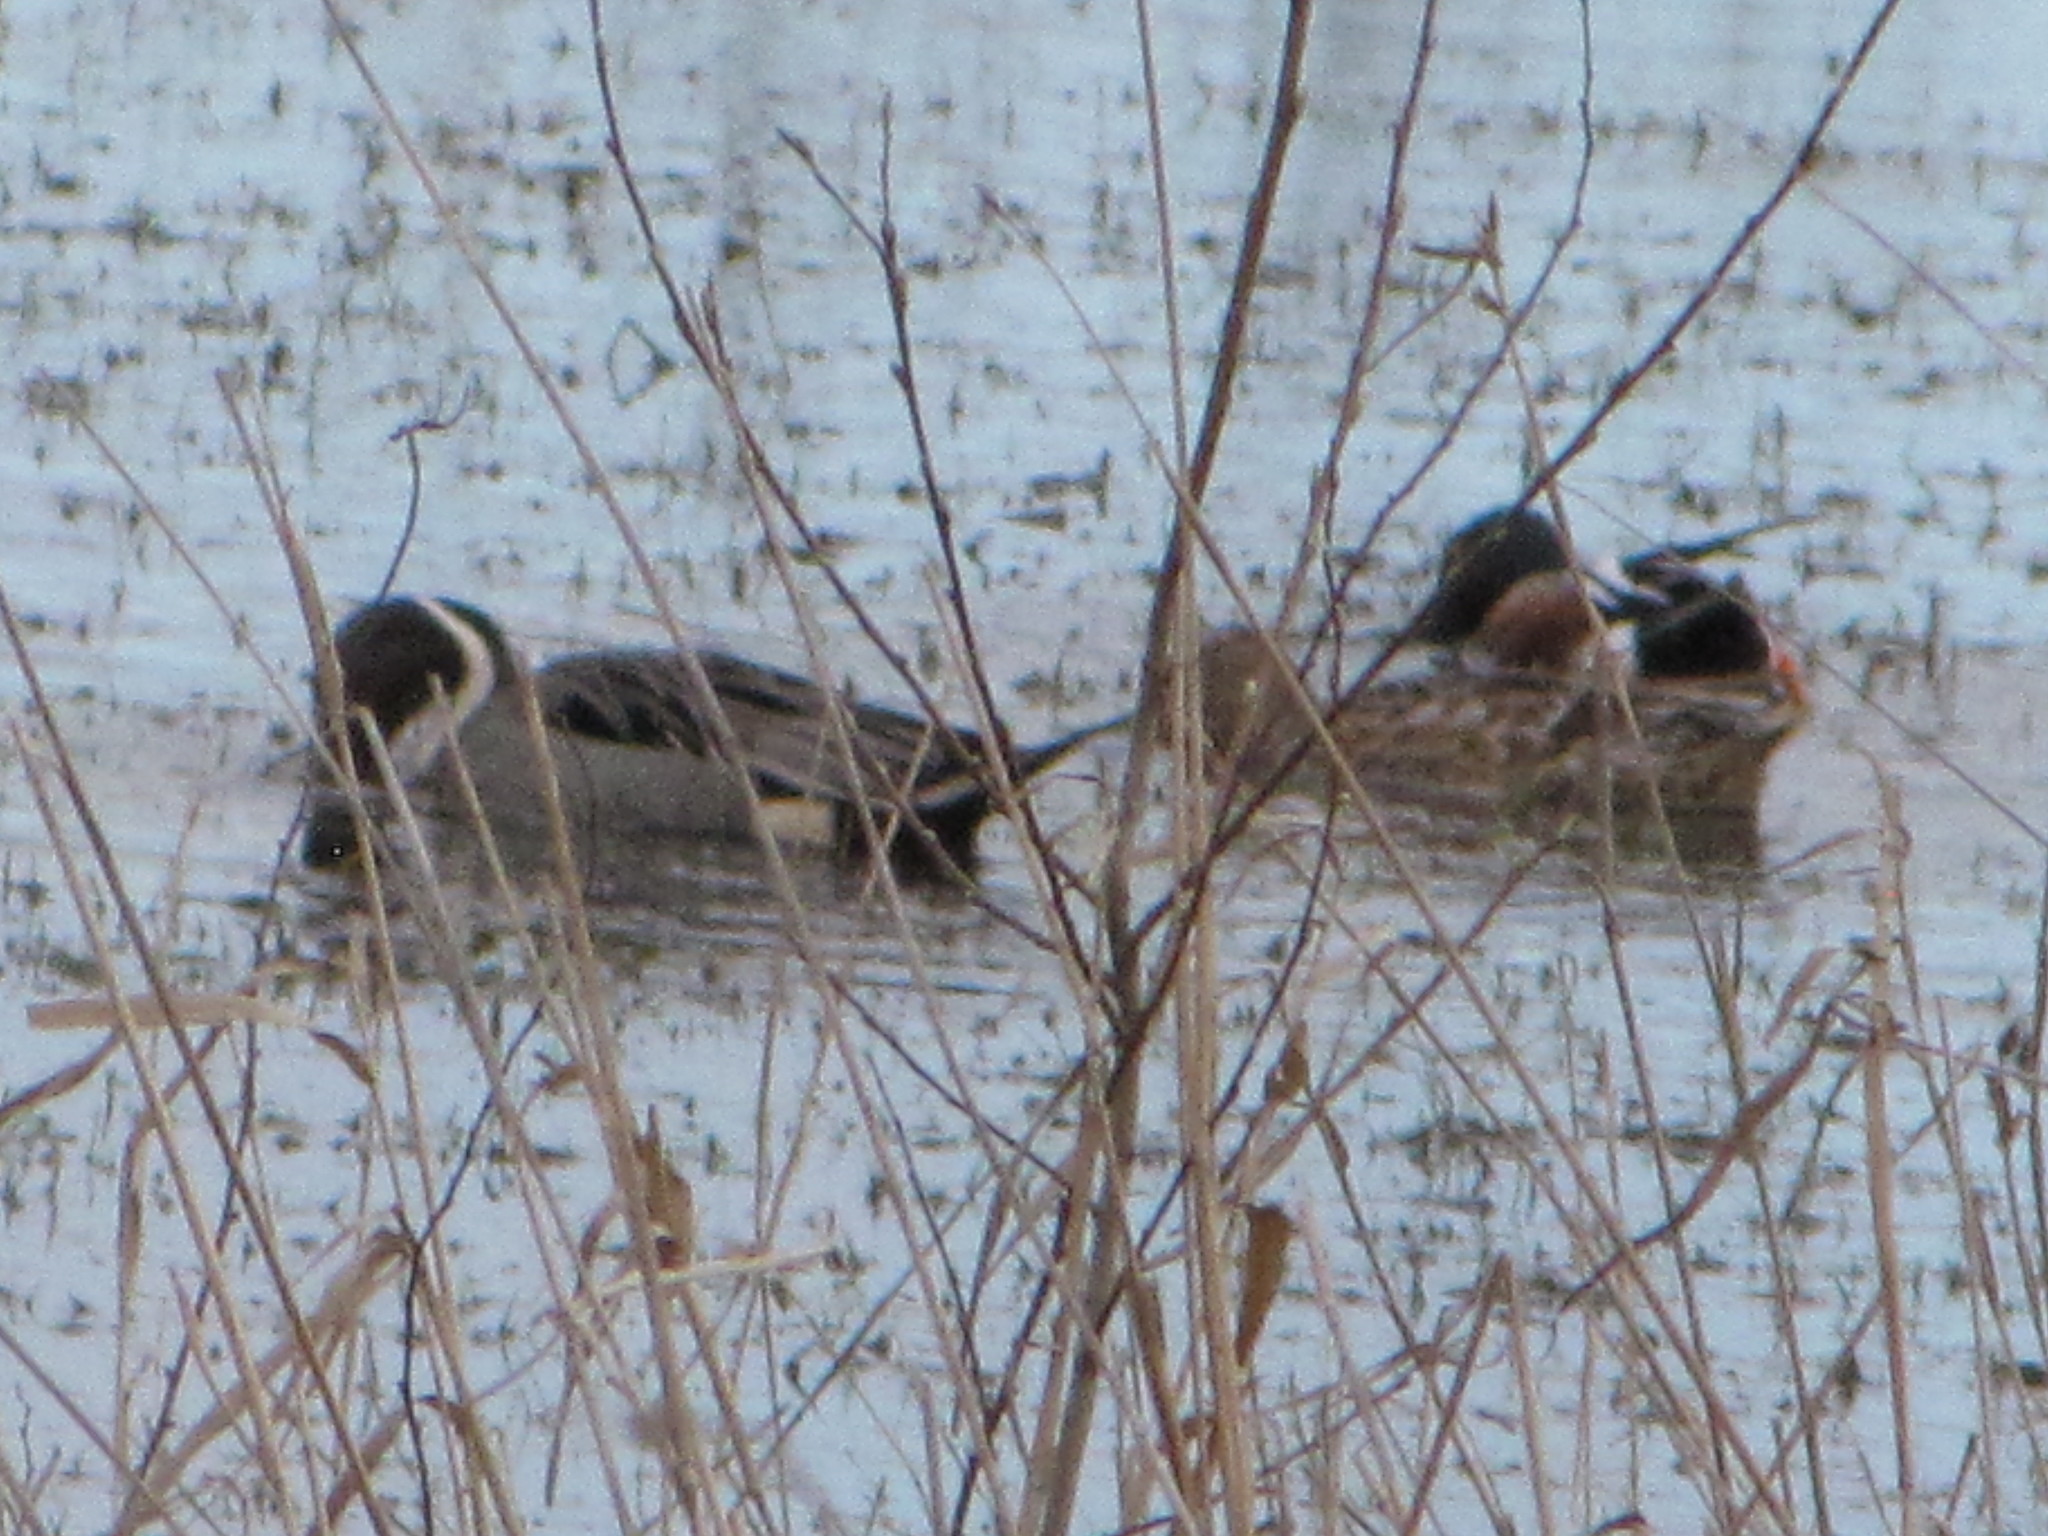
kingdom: Animalia
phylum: Chordata
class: Aves
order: Anseriformes
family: Anatidae
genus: Spatula
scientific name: Spatula clypeata
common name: Northern shoveler
